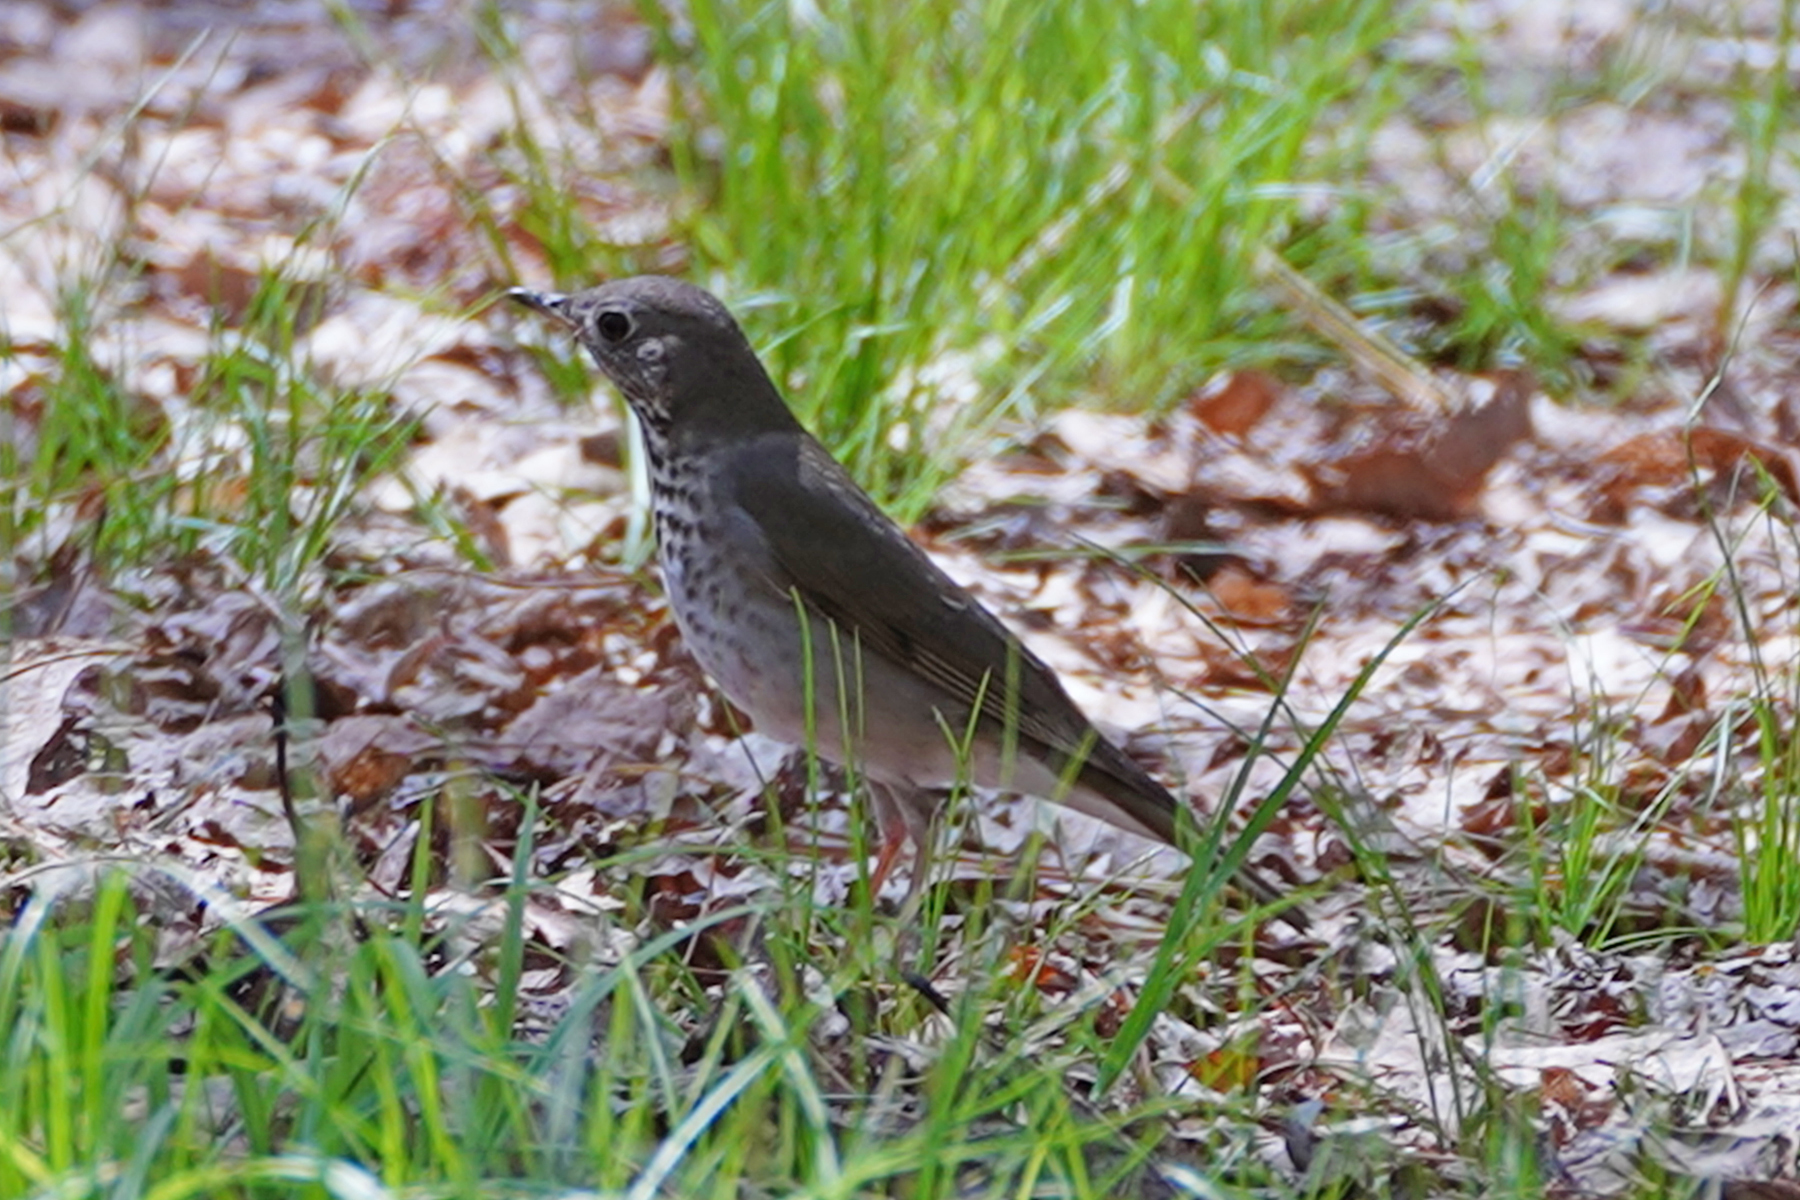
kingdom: Animalia
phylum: Chordata
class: Aves
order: Passeriformes
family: Turdidae
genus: Catharus
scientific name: Catharus minimus
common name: Grey-cheeked thrush
